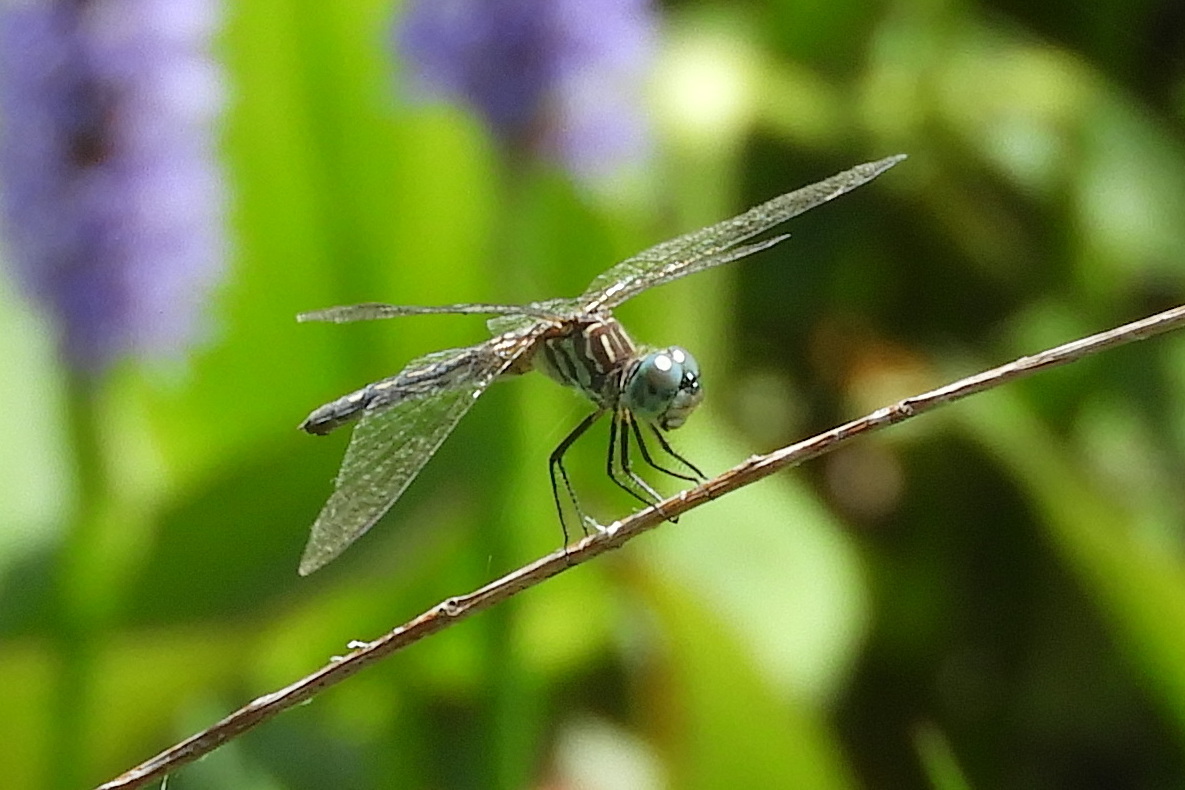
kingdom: Animalia
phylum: Arthropoda
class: Insecta
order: Odonata
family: Libellulidae
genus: Pachydiplax
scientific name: Pachydiplax longipennis
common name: Blue dasher
